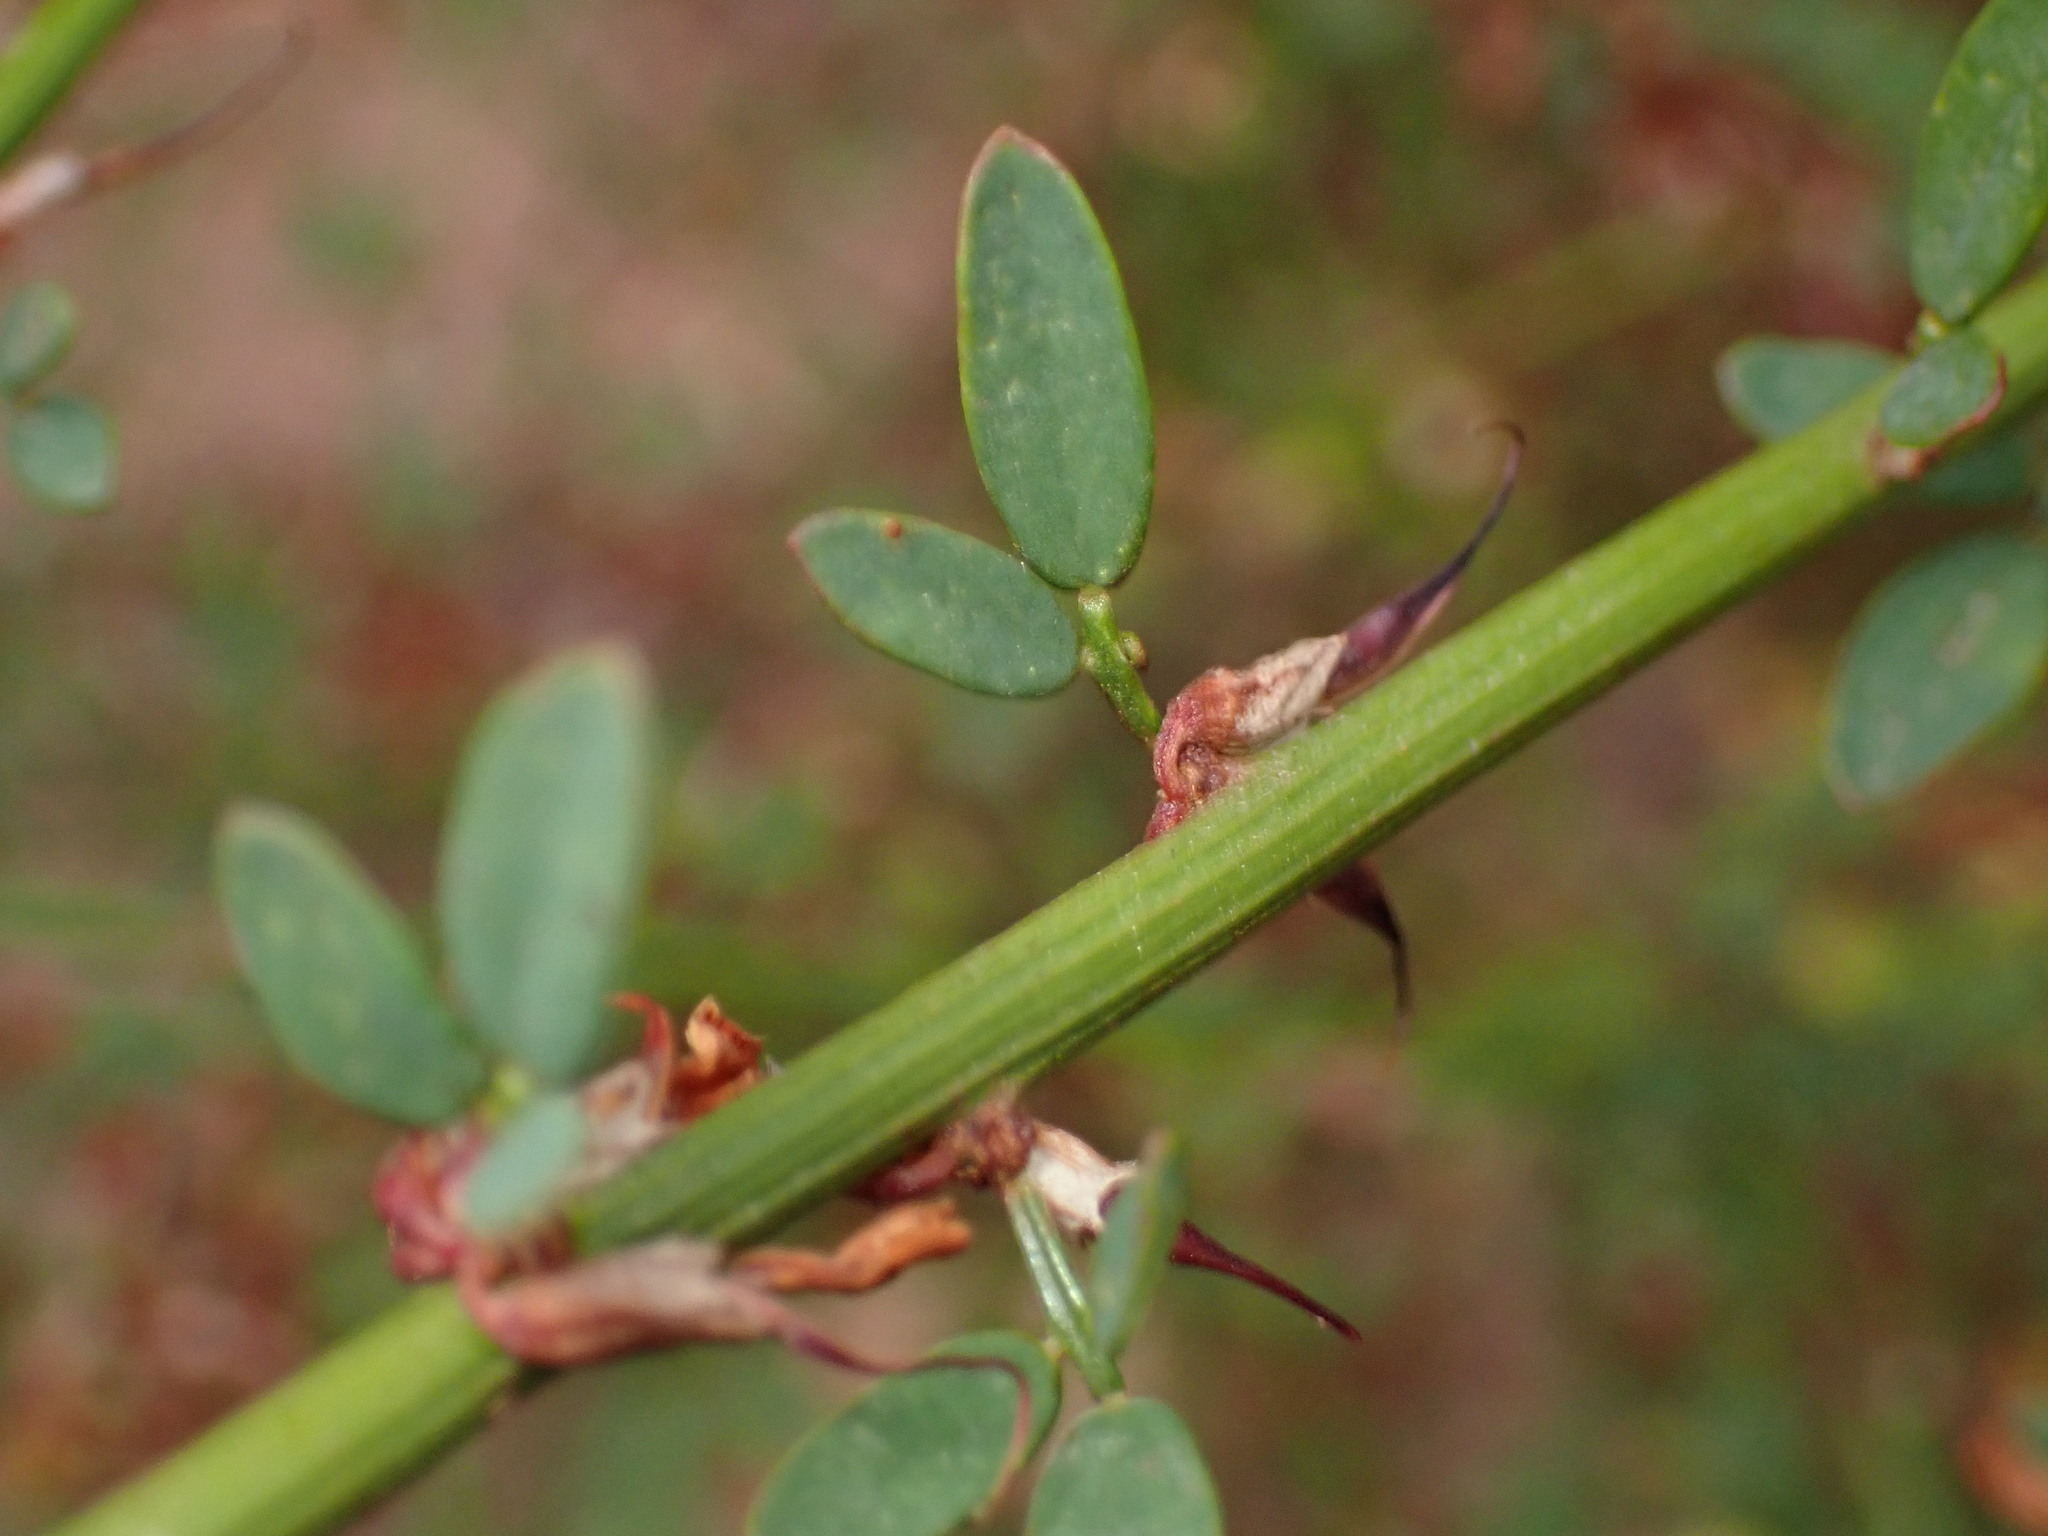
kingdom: Plantae
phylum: Tracheophyta
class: Magnoliopsida
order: Fabales
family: Fabaceae
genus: Acmispon
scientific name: Acmispon glaber
